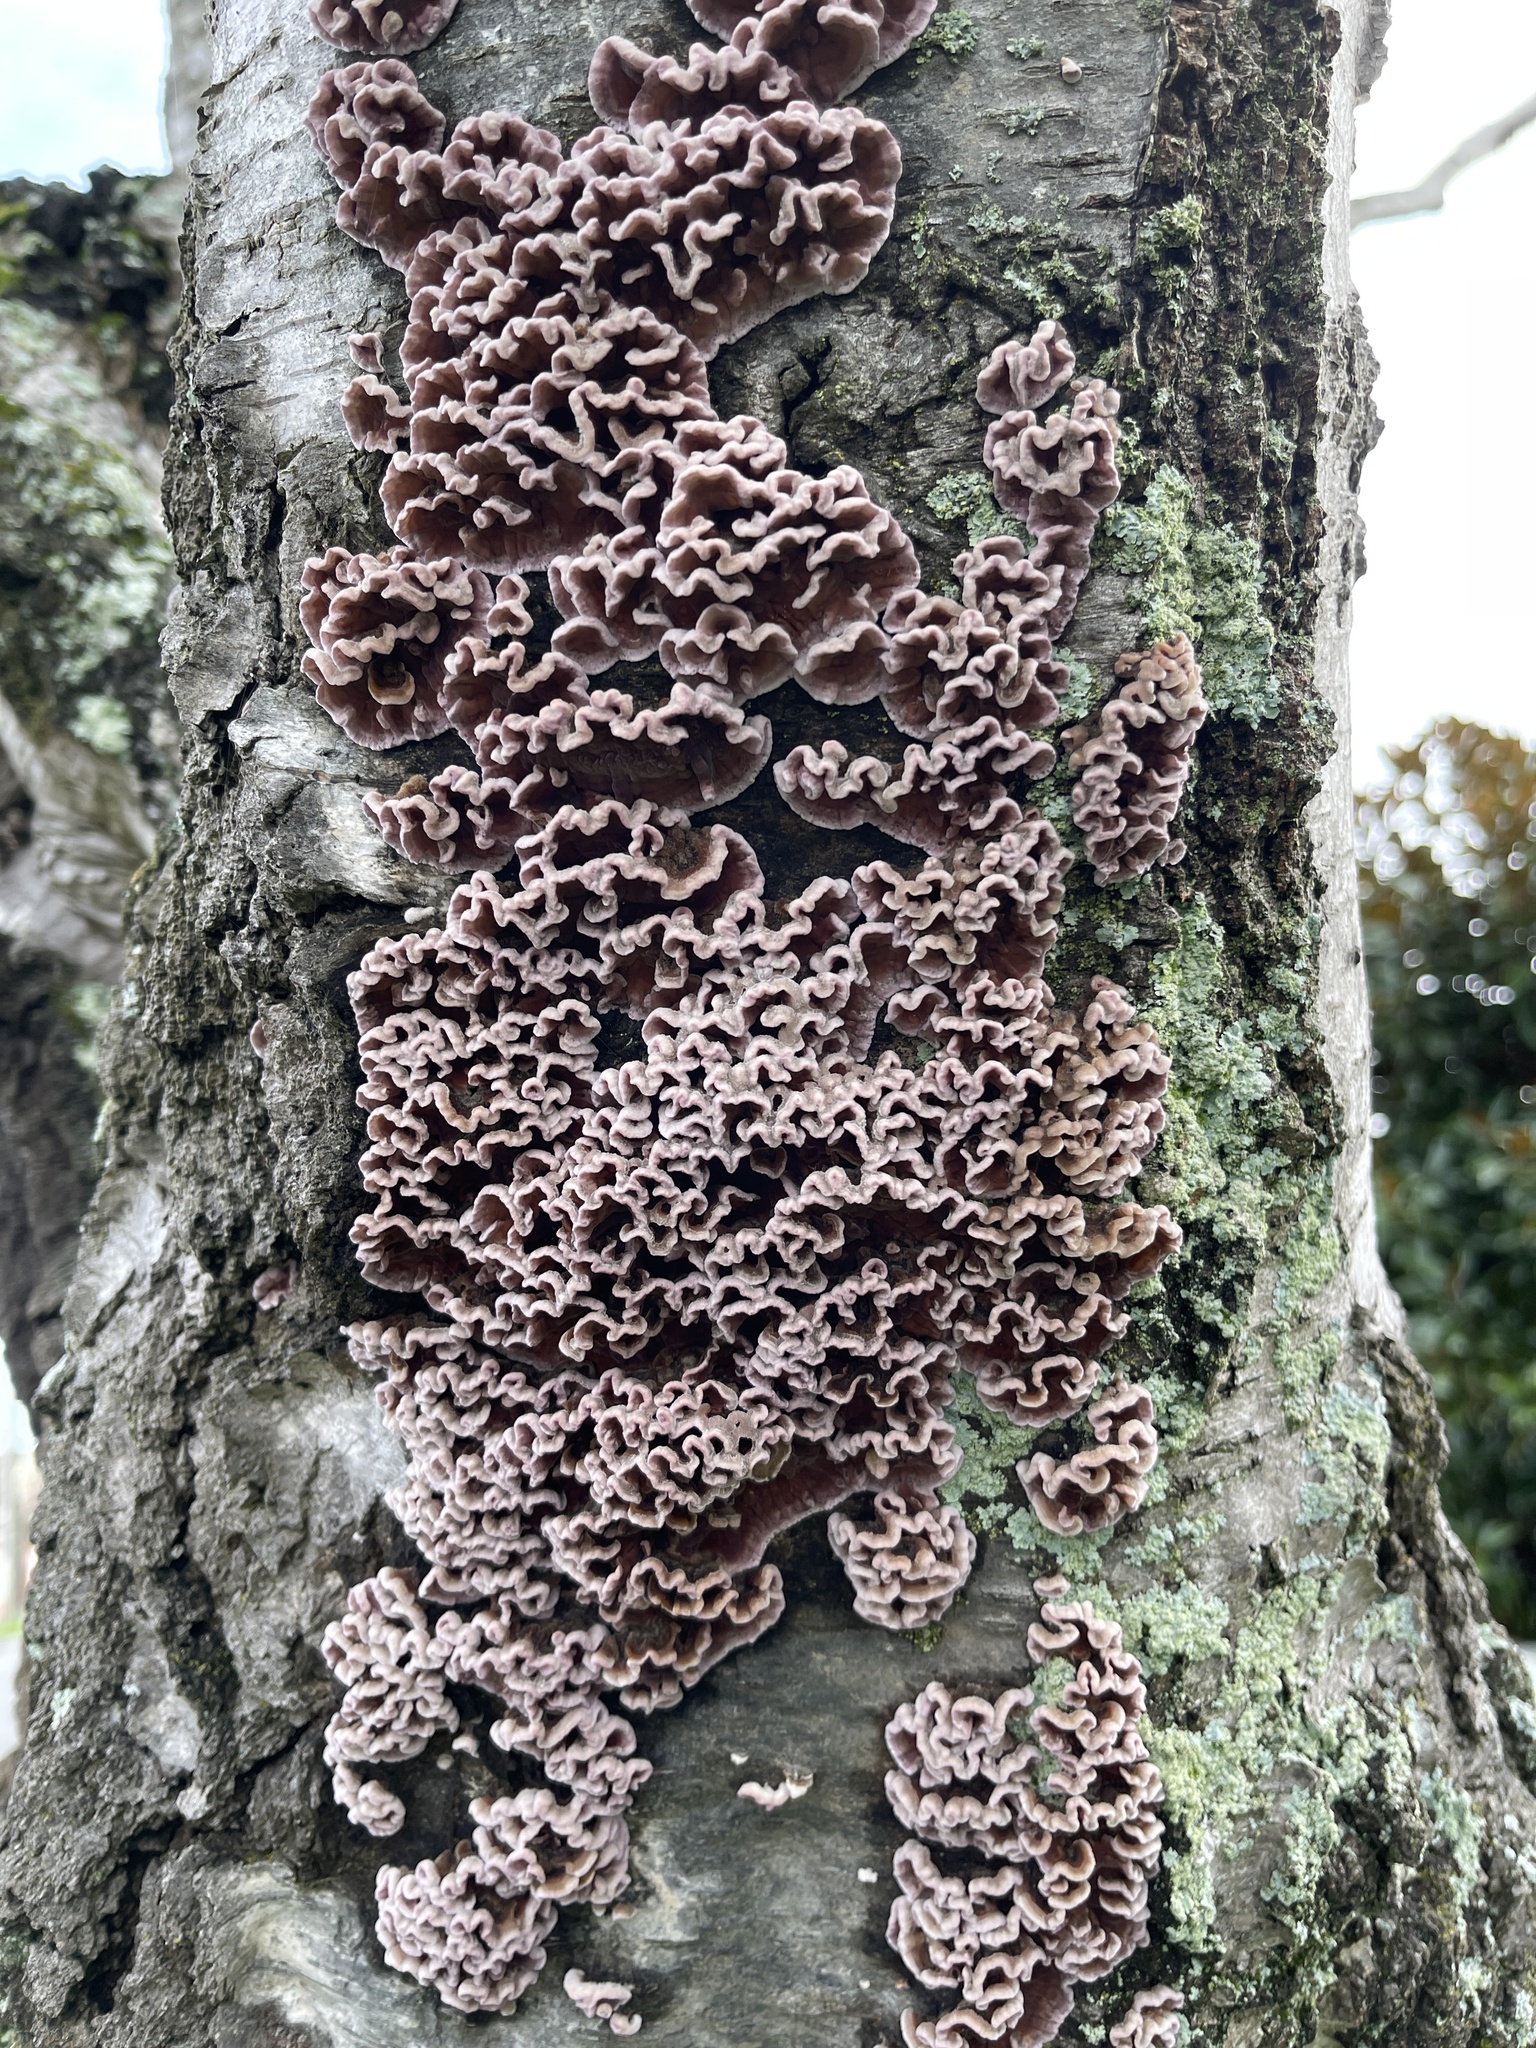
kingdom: Fungi
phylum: Basidiomycota
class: Agaricomycetes
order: Agaricales
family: Cyphellaceae
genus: Chondrostereum
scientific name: Chondrostereum purpureum
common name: Silver leaf disease
